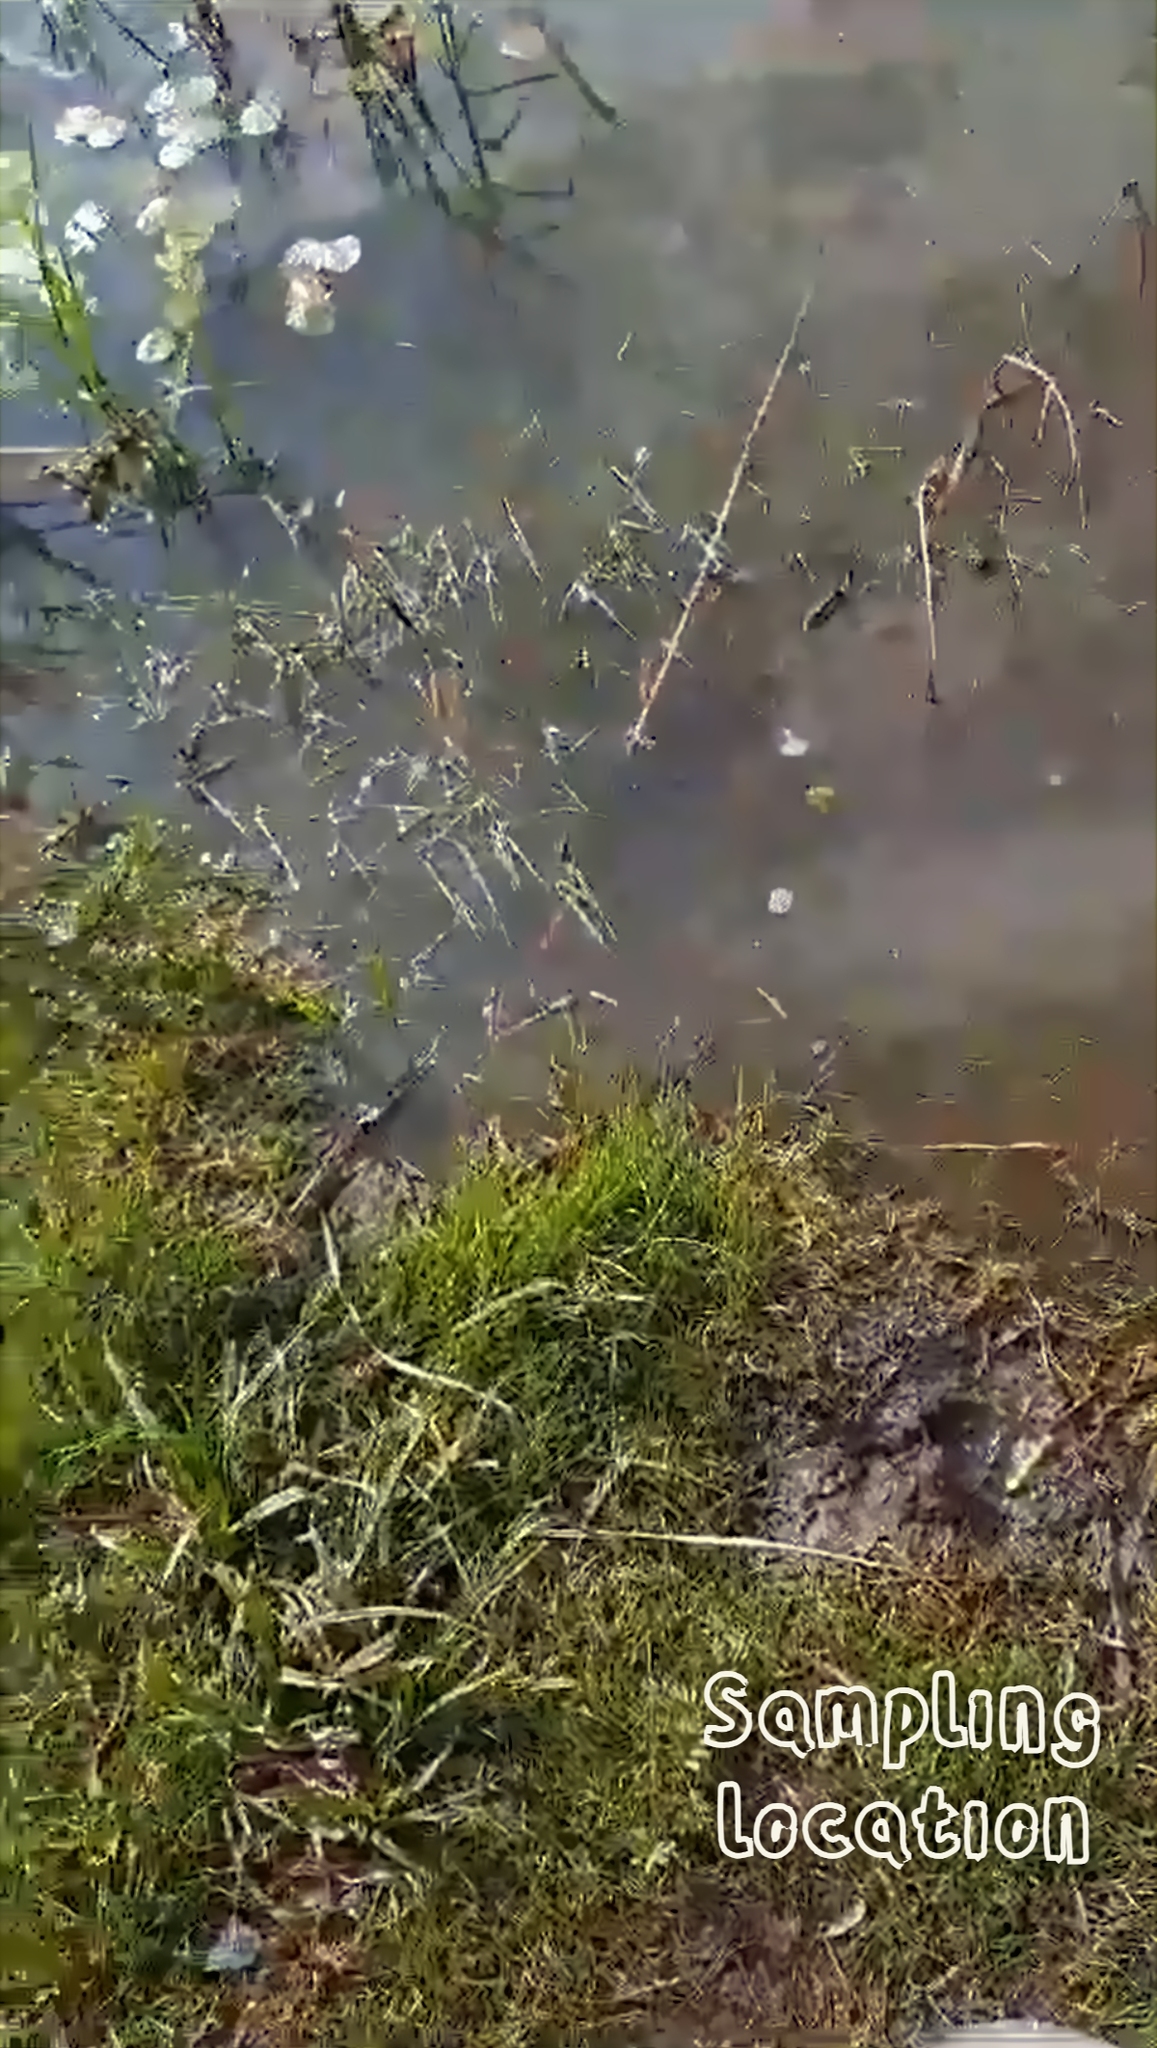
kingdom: Plantae
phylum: Chlorophyta
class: Chlorophyceae
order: Sphaeropleales
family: Scenedesmaceae
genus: Desmodesmus
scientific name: Desmodesmus armatus
